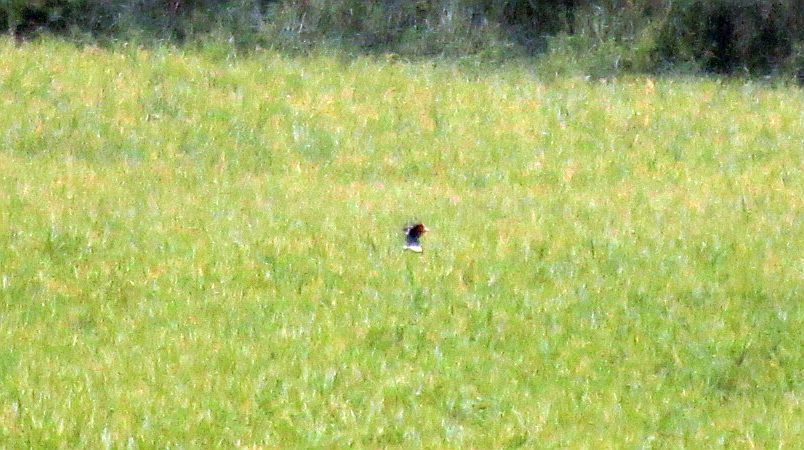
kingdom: Animalia
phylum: Chordata
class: Aves
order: Galliformes
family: Phasianidae
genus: Phasianus
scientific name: Phasianus colchicus
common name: Common pheasant
